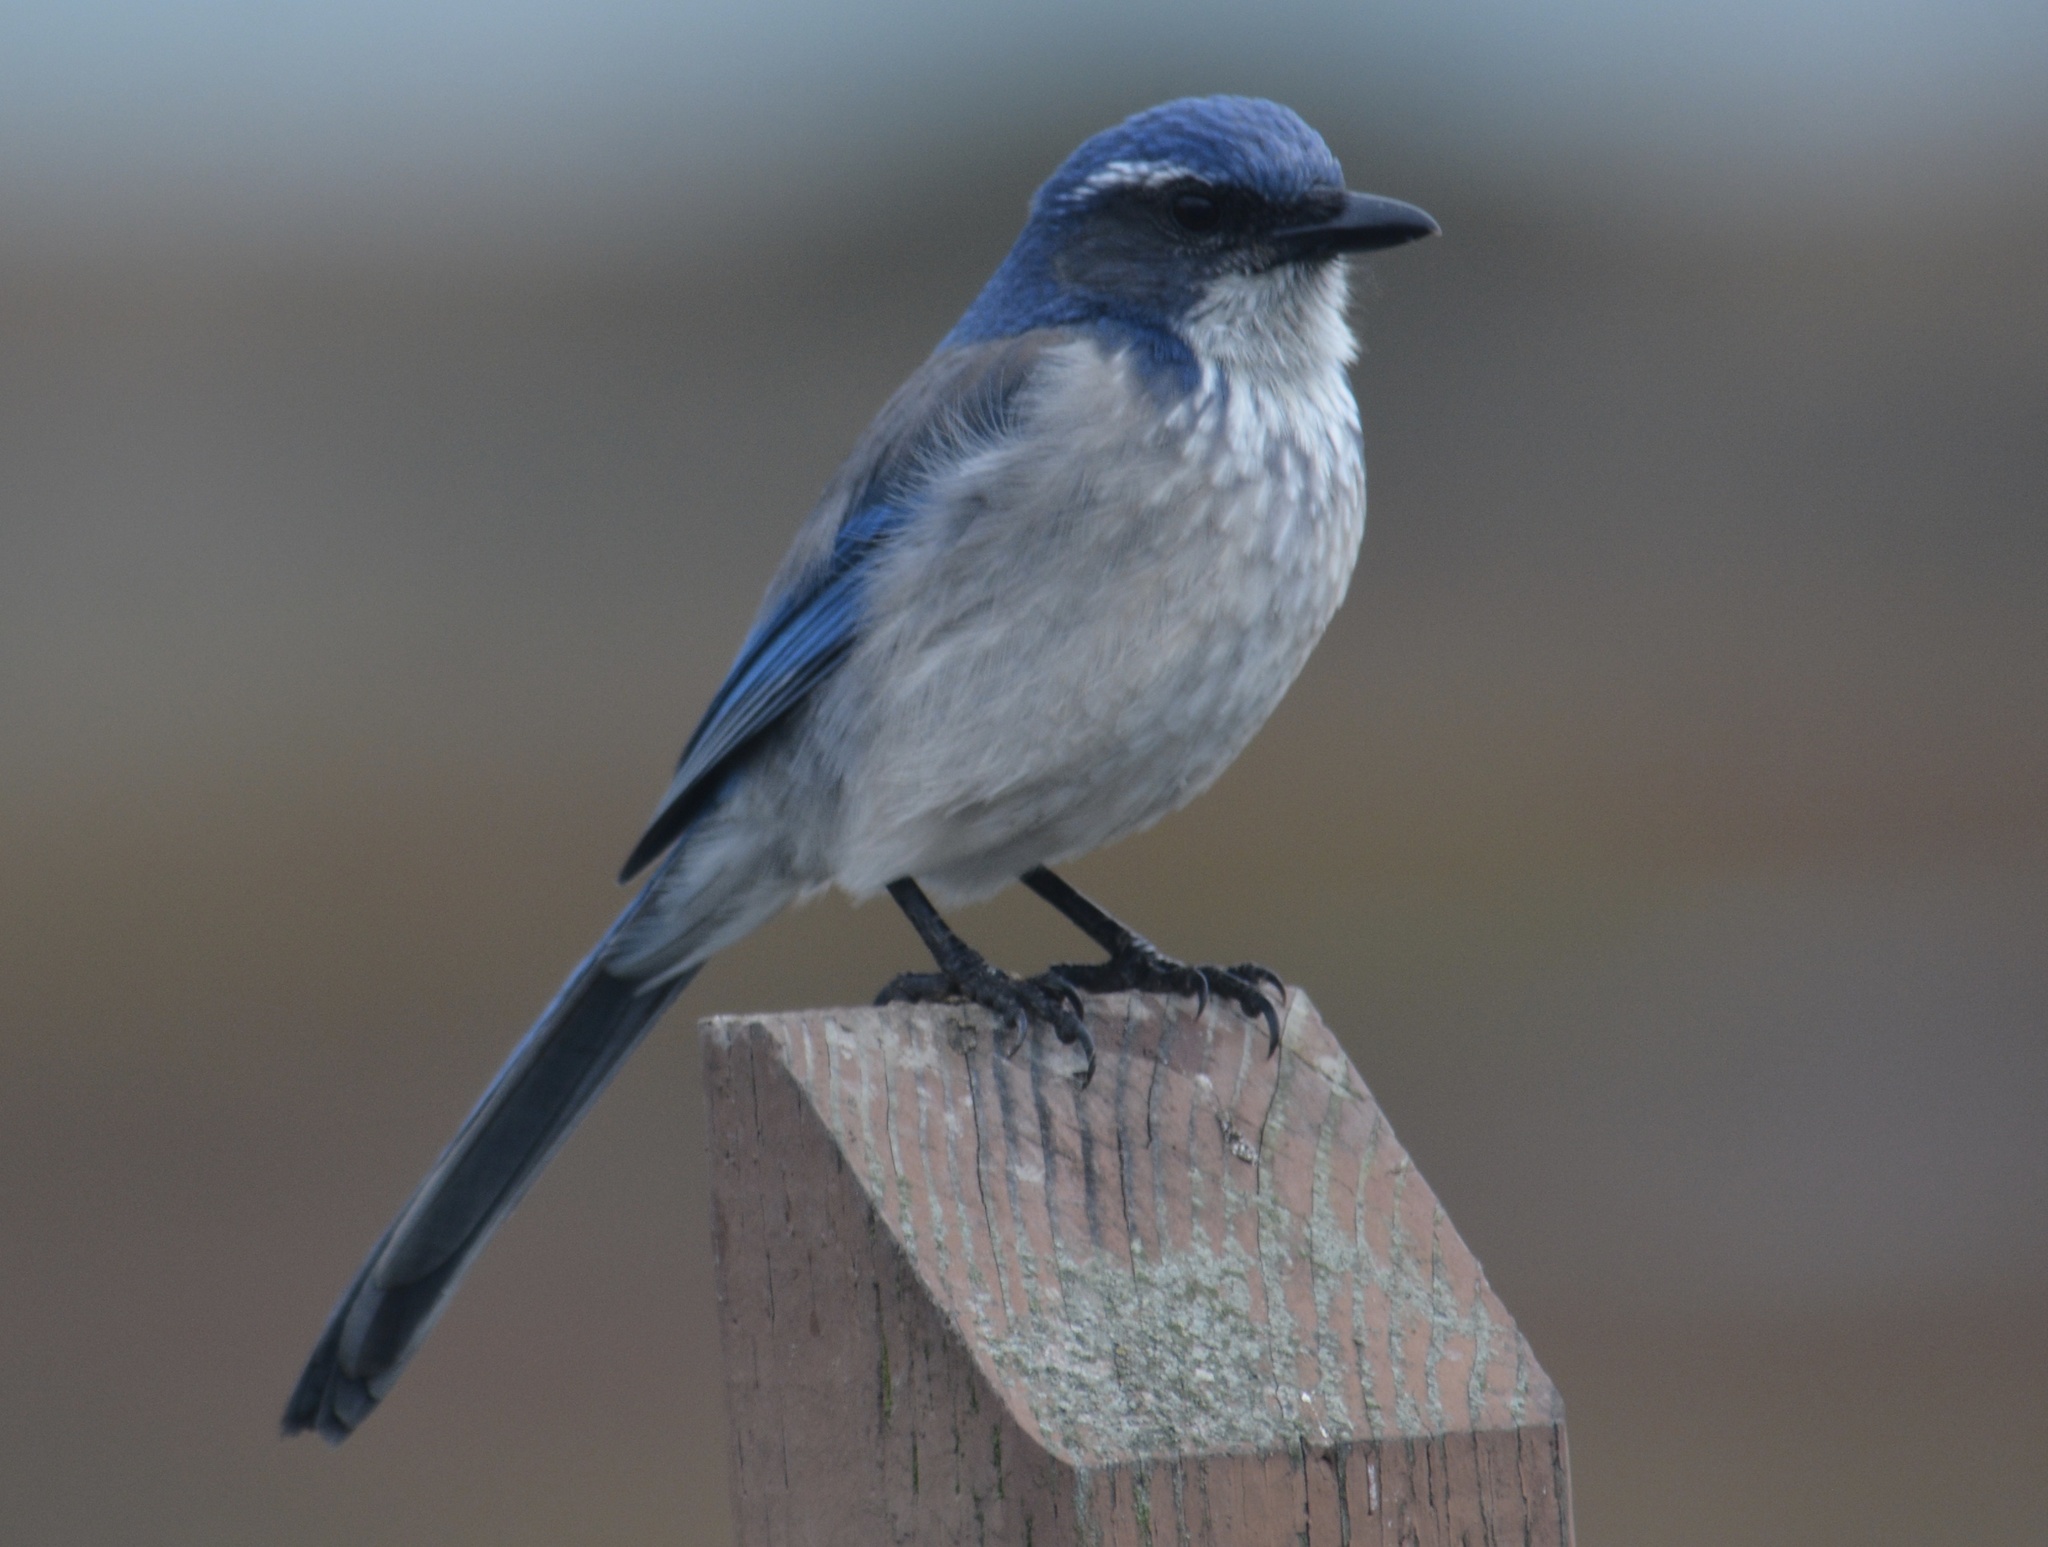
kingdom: Animalia
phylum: Chordata
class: Aves
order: Passeriformes
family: Corvidae
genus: Aphelocoma
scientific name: Aphelocoma californica
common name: California scrub-jay
